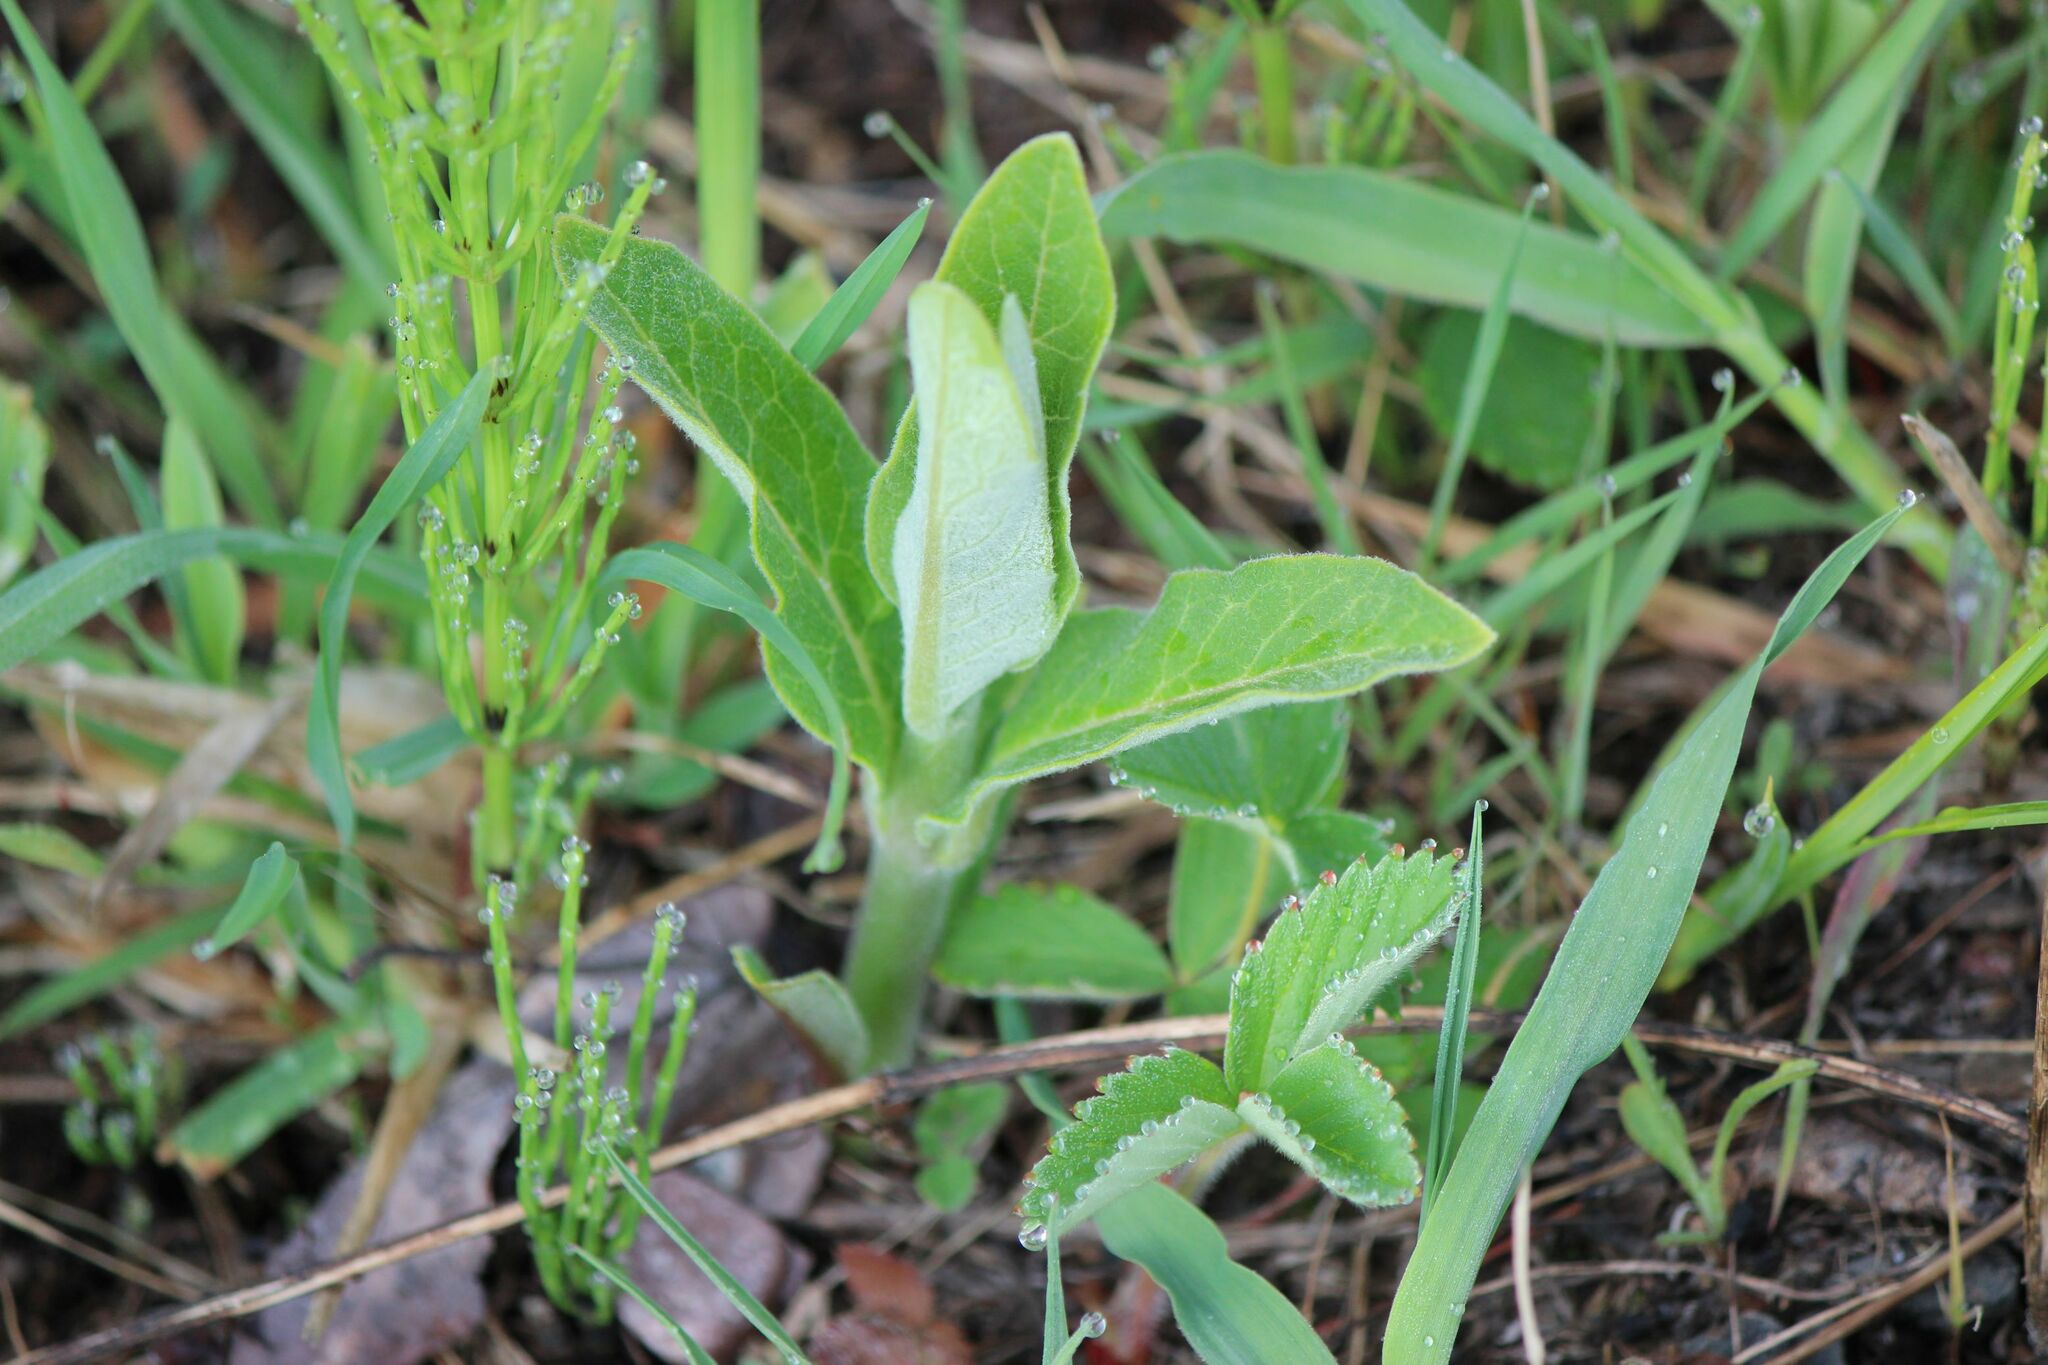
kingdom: Plantae
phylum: Tracheophyta
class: Magnoliopsida
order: Gentianales
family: Apocynaceae
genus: Asclepias
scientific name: Asclepias syriaca
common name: Common milkweed
